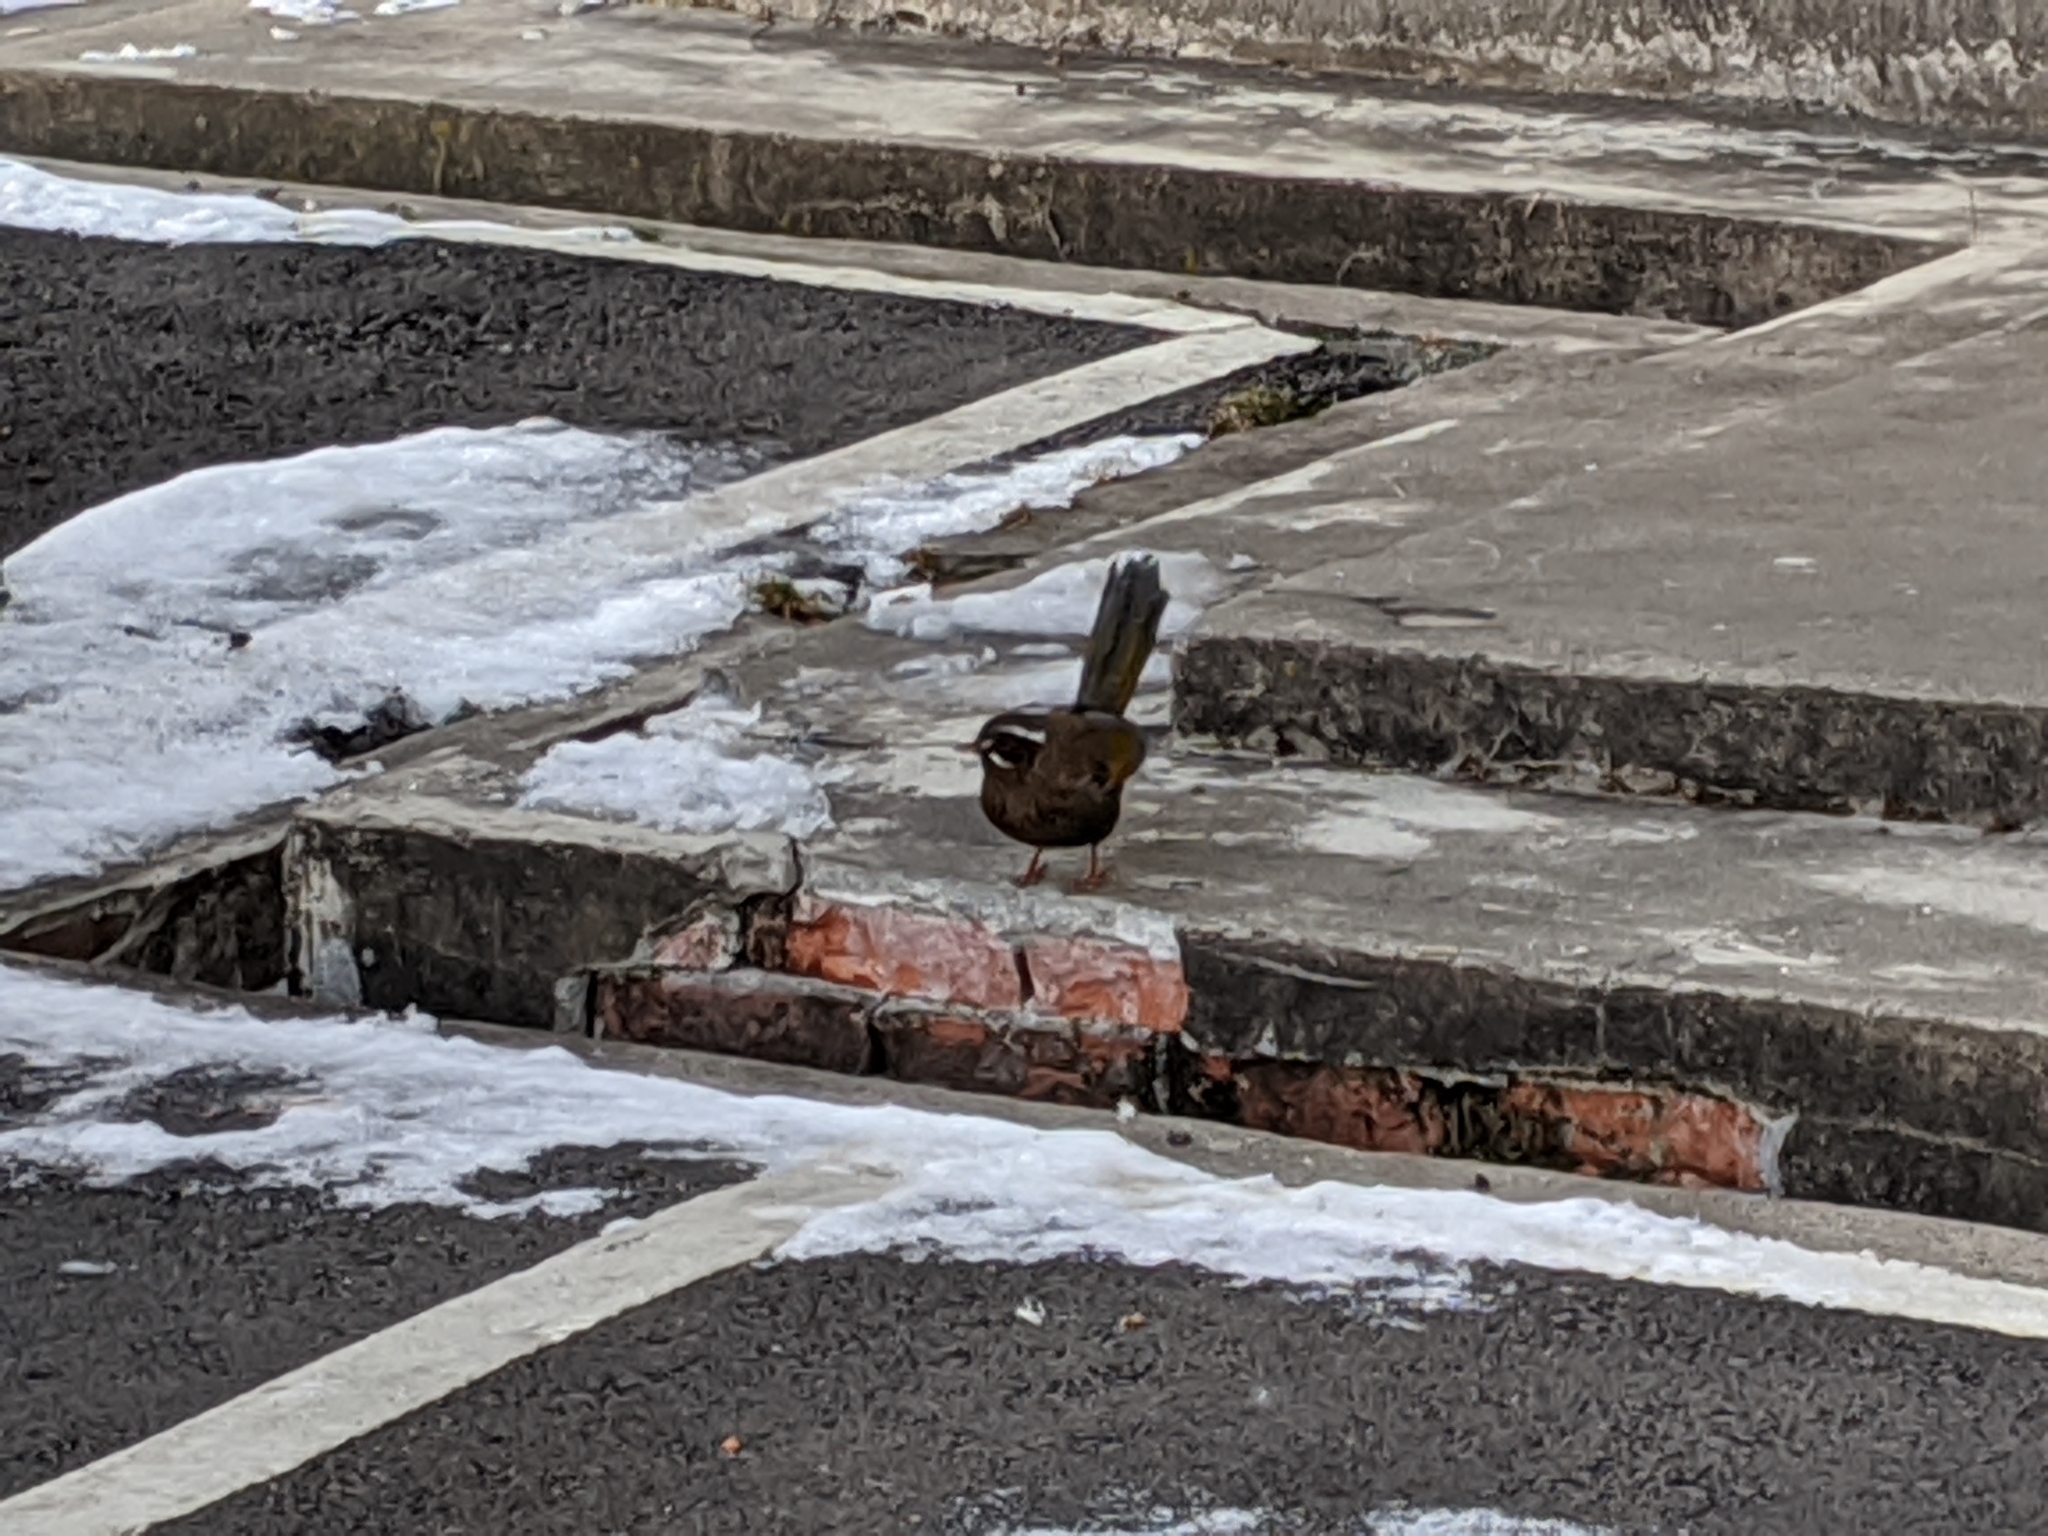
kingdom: Animalia
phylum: Chordata
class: Aves
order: Passeriformes
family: Leiothrichidae
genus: Trochalopteron
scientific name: Trochalopteron morrisonianum
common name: White-whiskered laughingthrush
